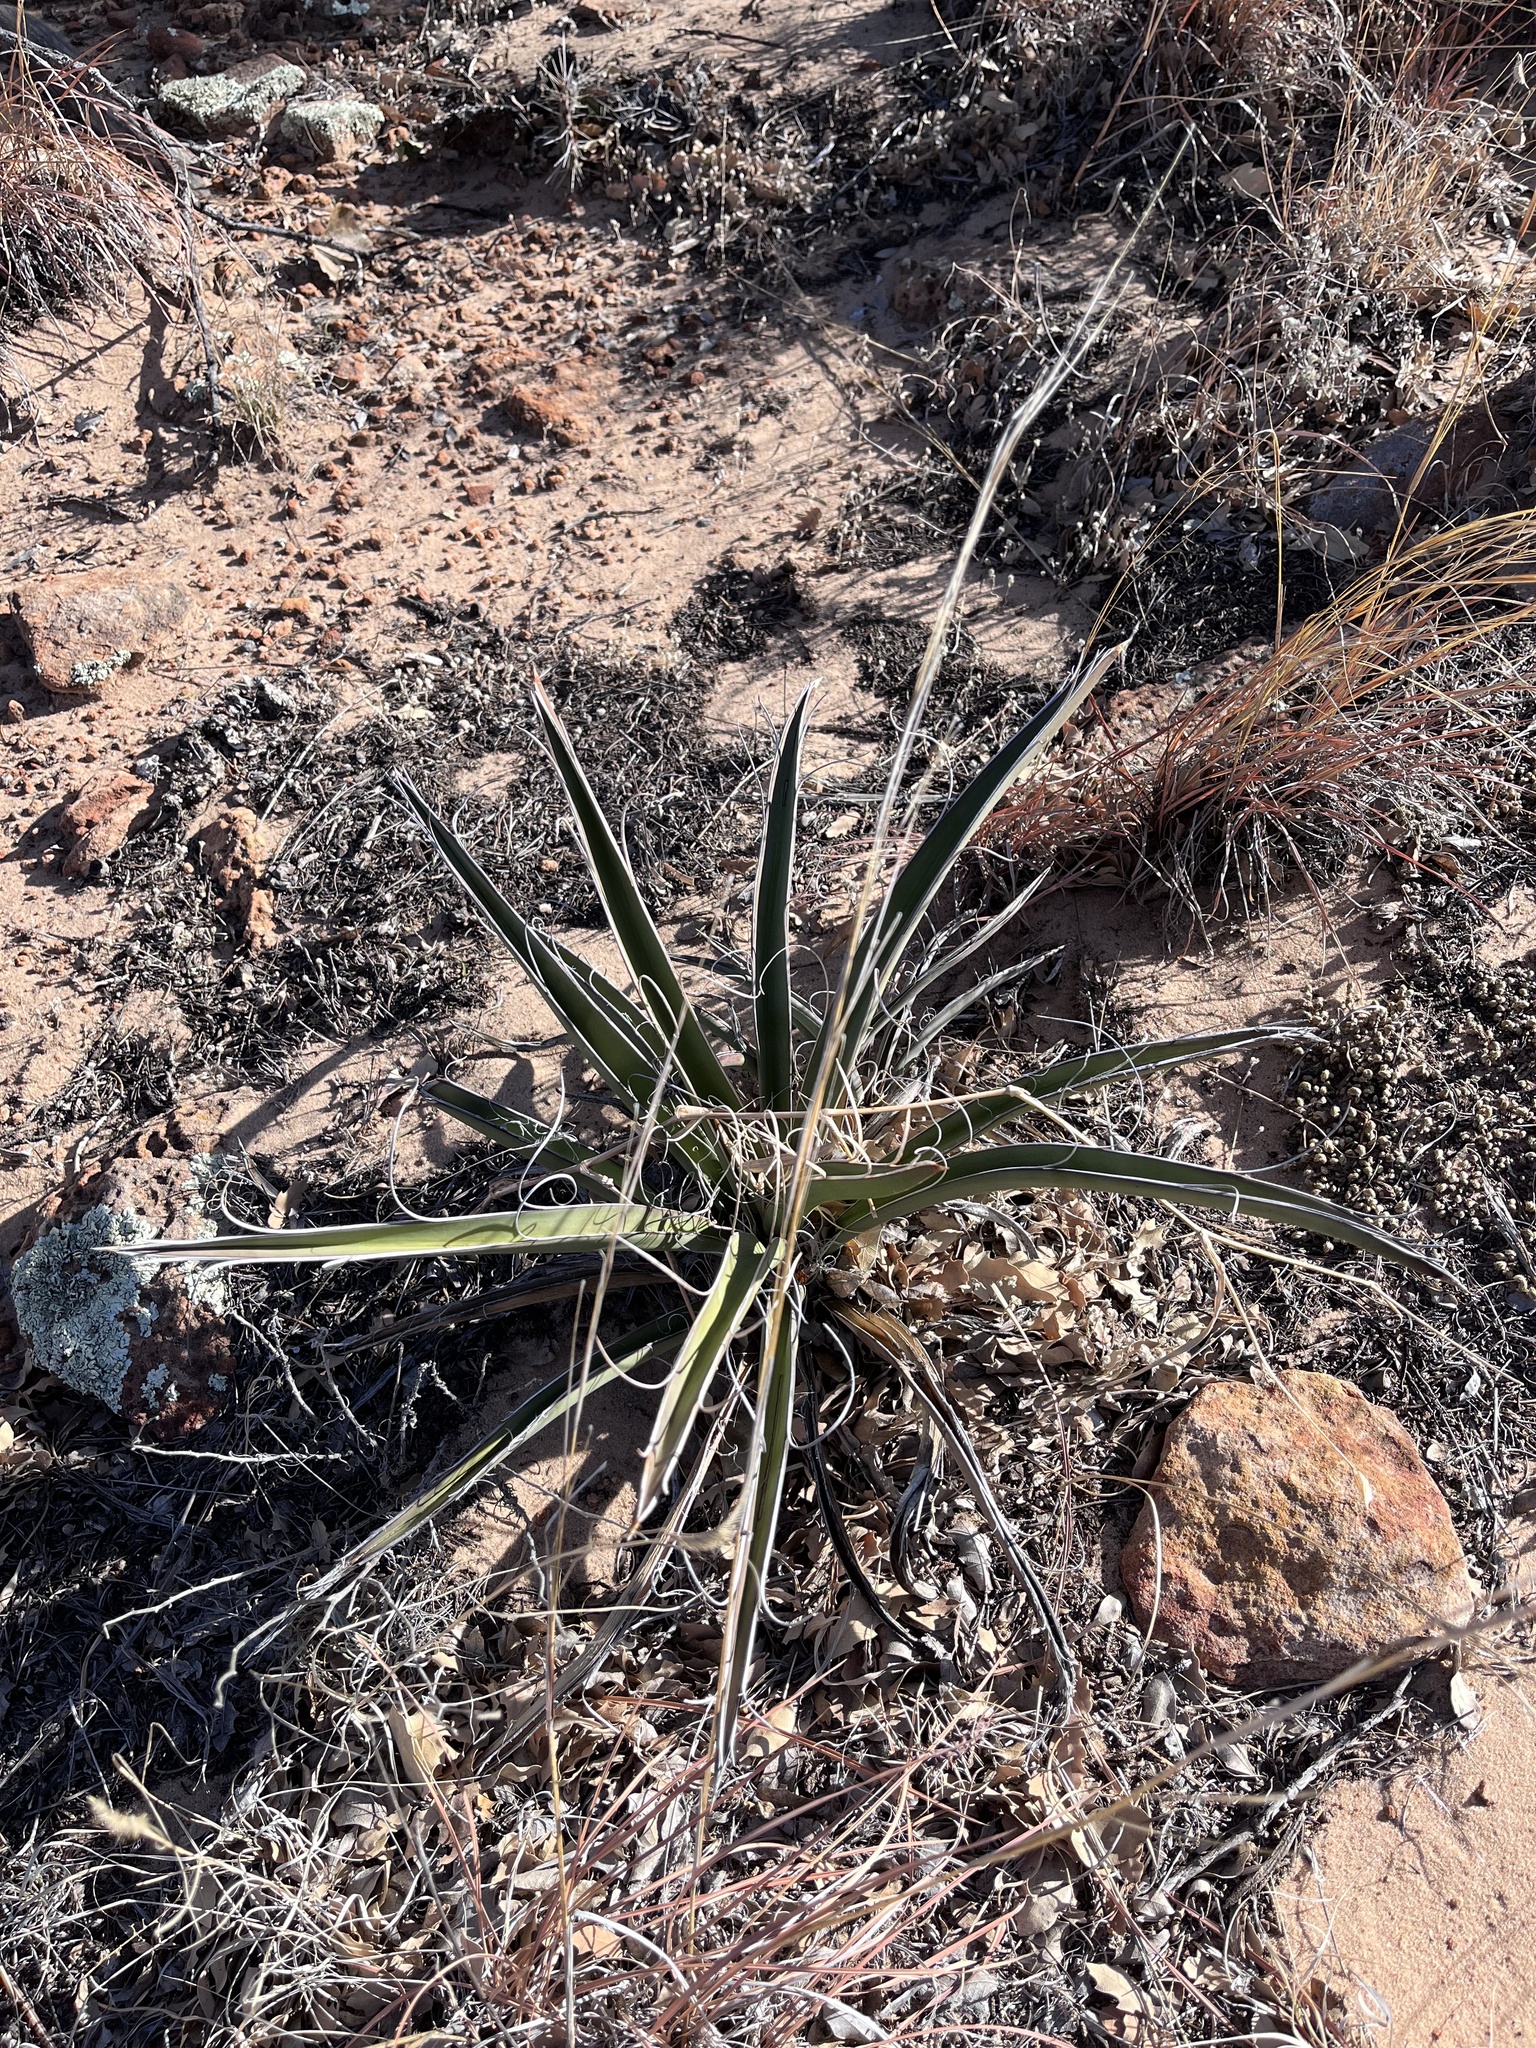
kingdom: Plantae
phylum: Tracheophyta
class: Liliopsida
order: Asparagales
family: Asparagaceae
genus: Yucca
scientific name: Yucca baccata
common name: Banana yucca
